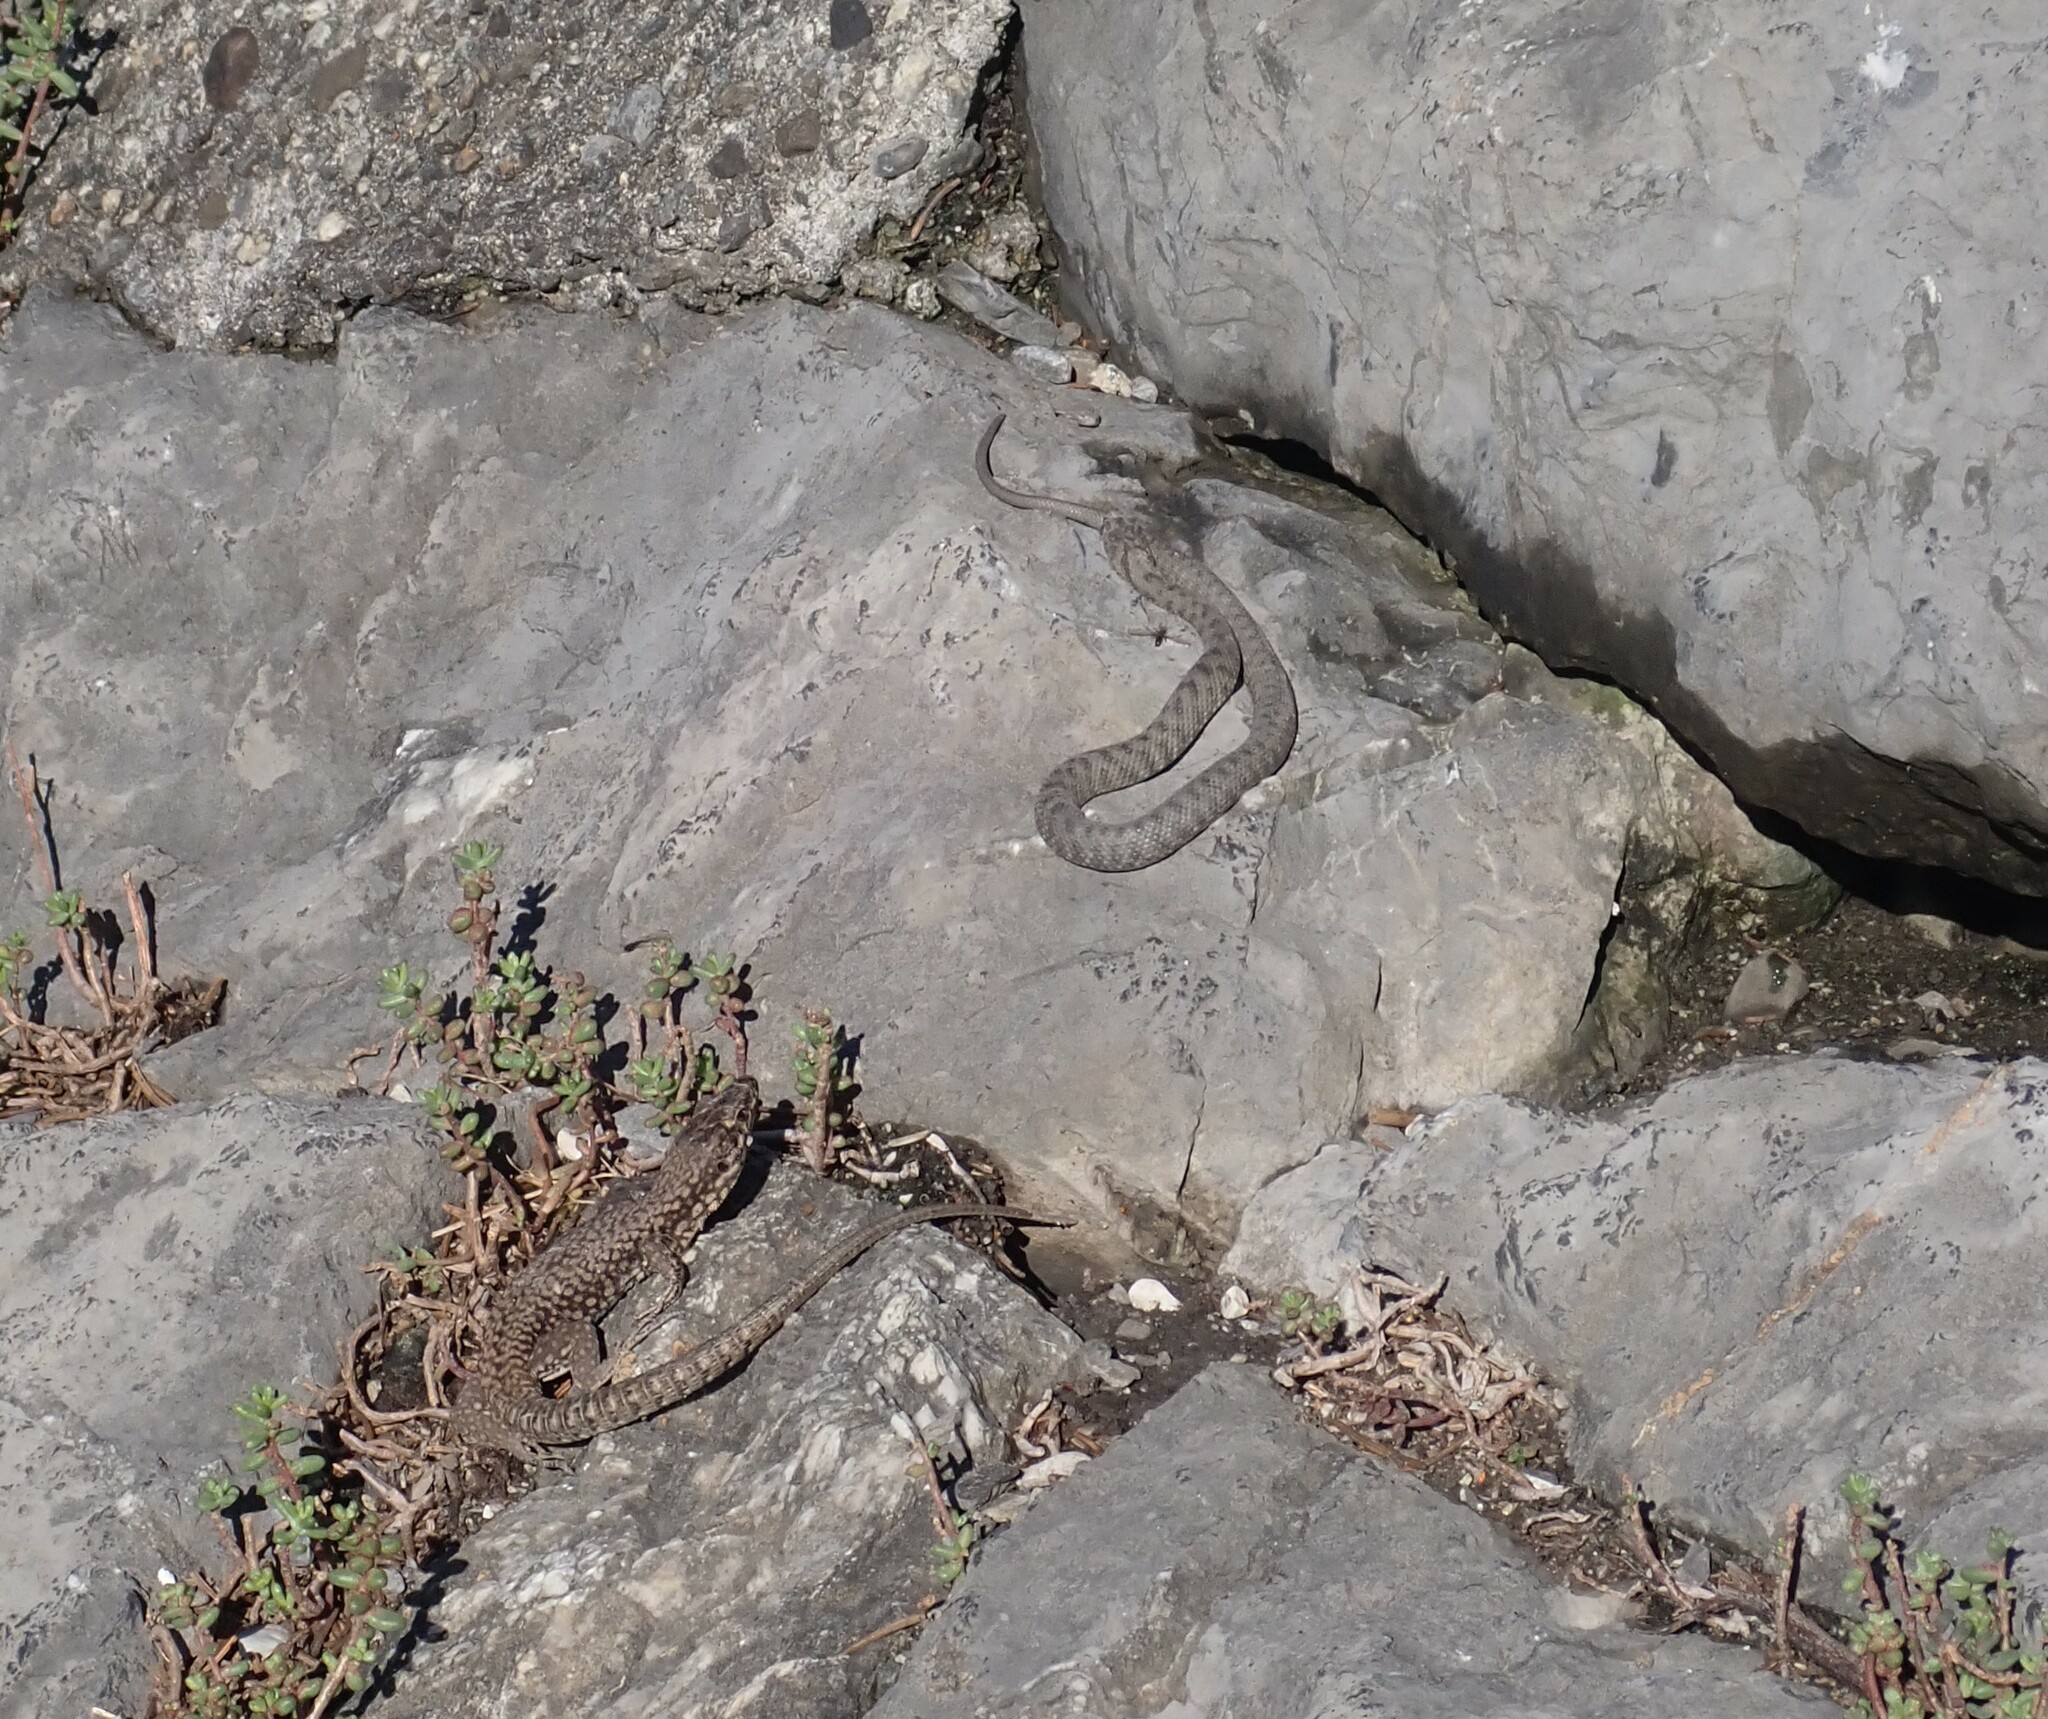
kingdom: Animalia
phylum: Chordata
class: Squamata
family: Lacertidae
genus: Podarcis
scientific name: Podarcis muralis
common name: Common wall lizard
